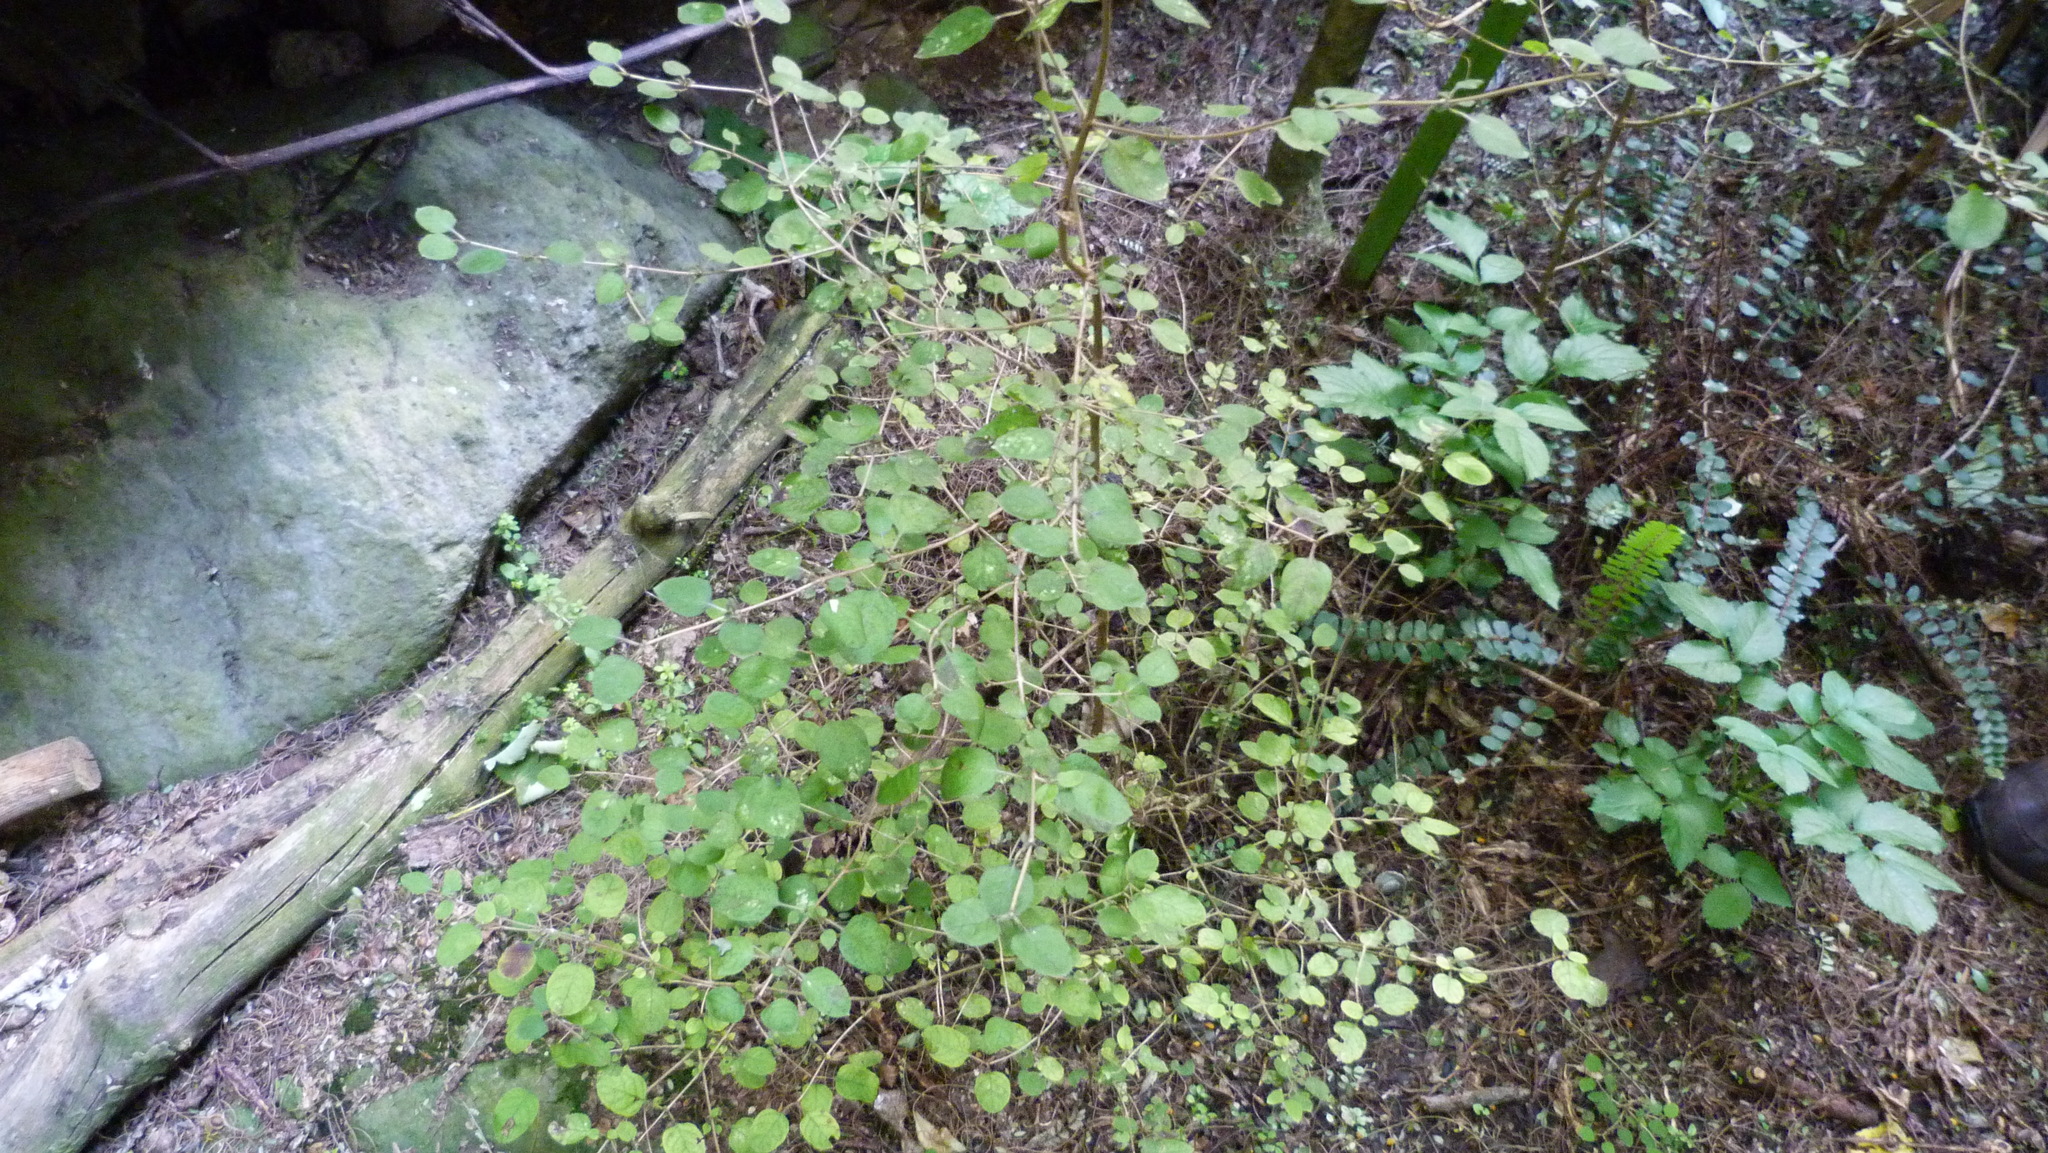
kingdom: Plantae
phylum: Tracheophyta
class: Magnoliopsida
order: Gentianales
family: Rubiaceae
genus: Coprosma
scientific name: Coprosma rotundifolia
